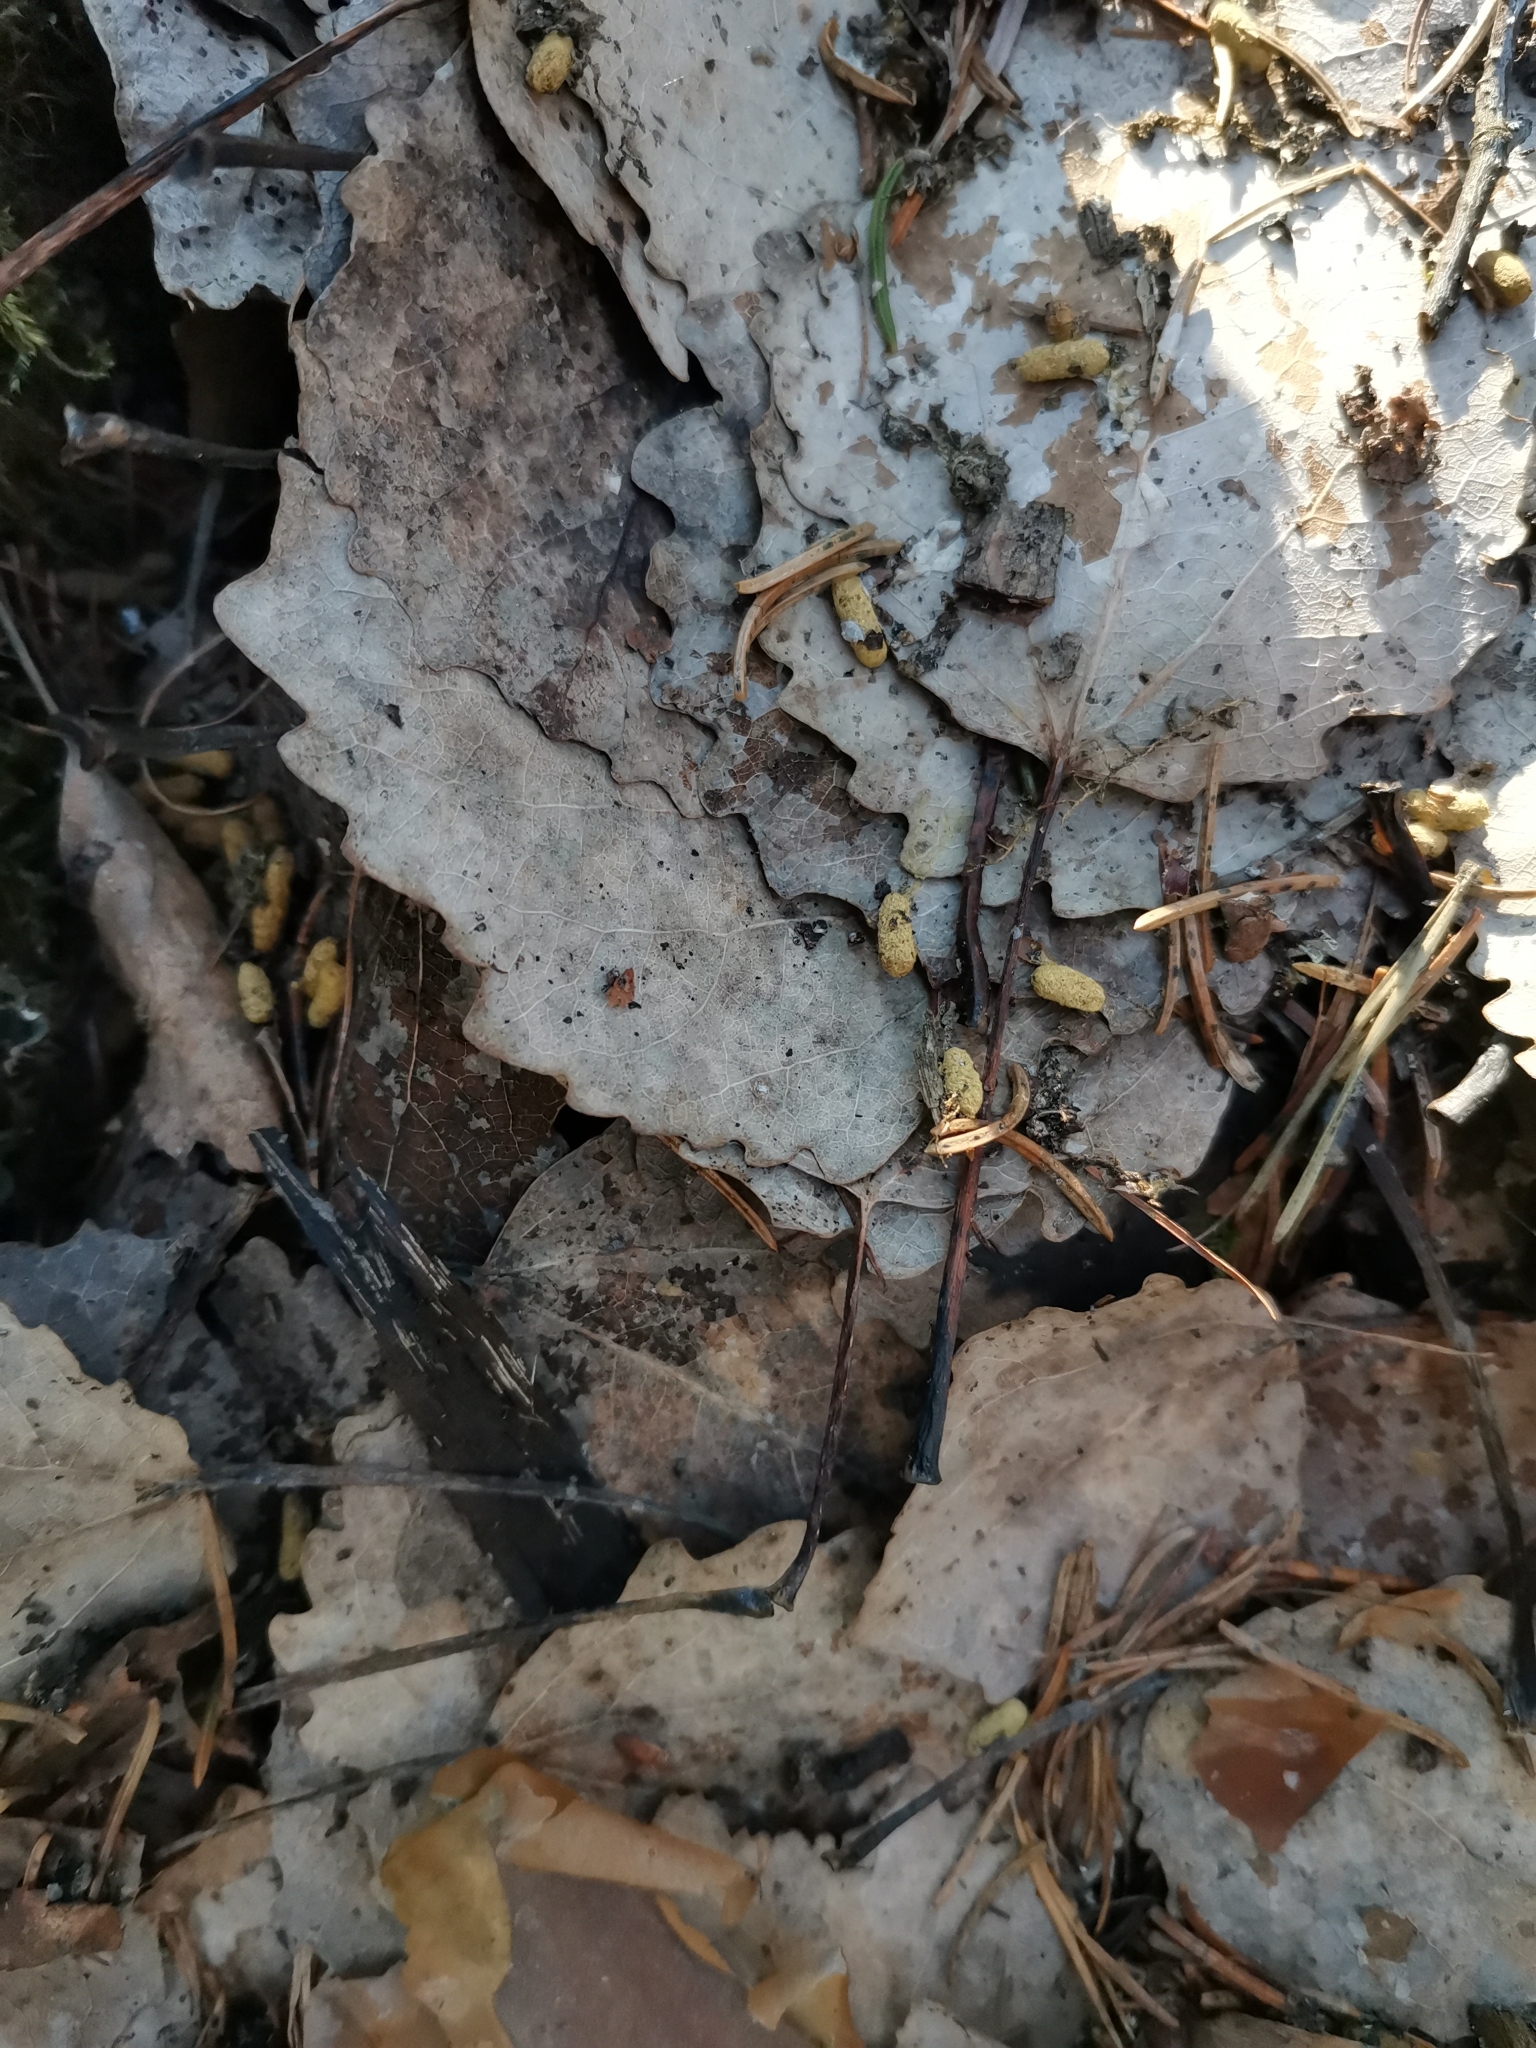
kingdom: Animalia
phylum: Chordata
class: Mammalia
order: Rodentia
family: Sciuridae
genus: Pteromys
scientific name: Pteromys volans
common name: Siberian flying squirrel
